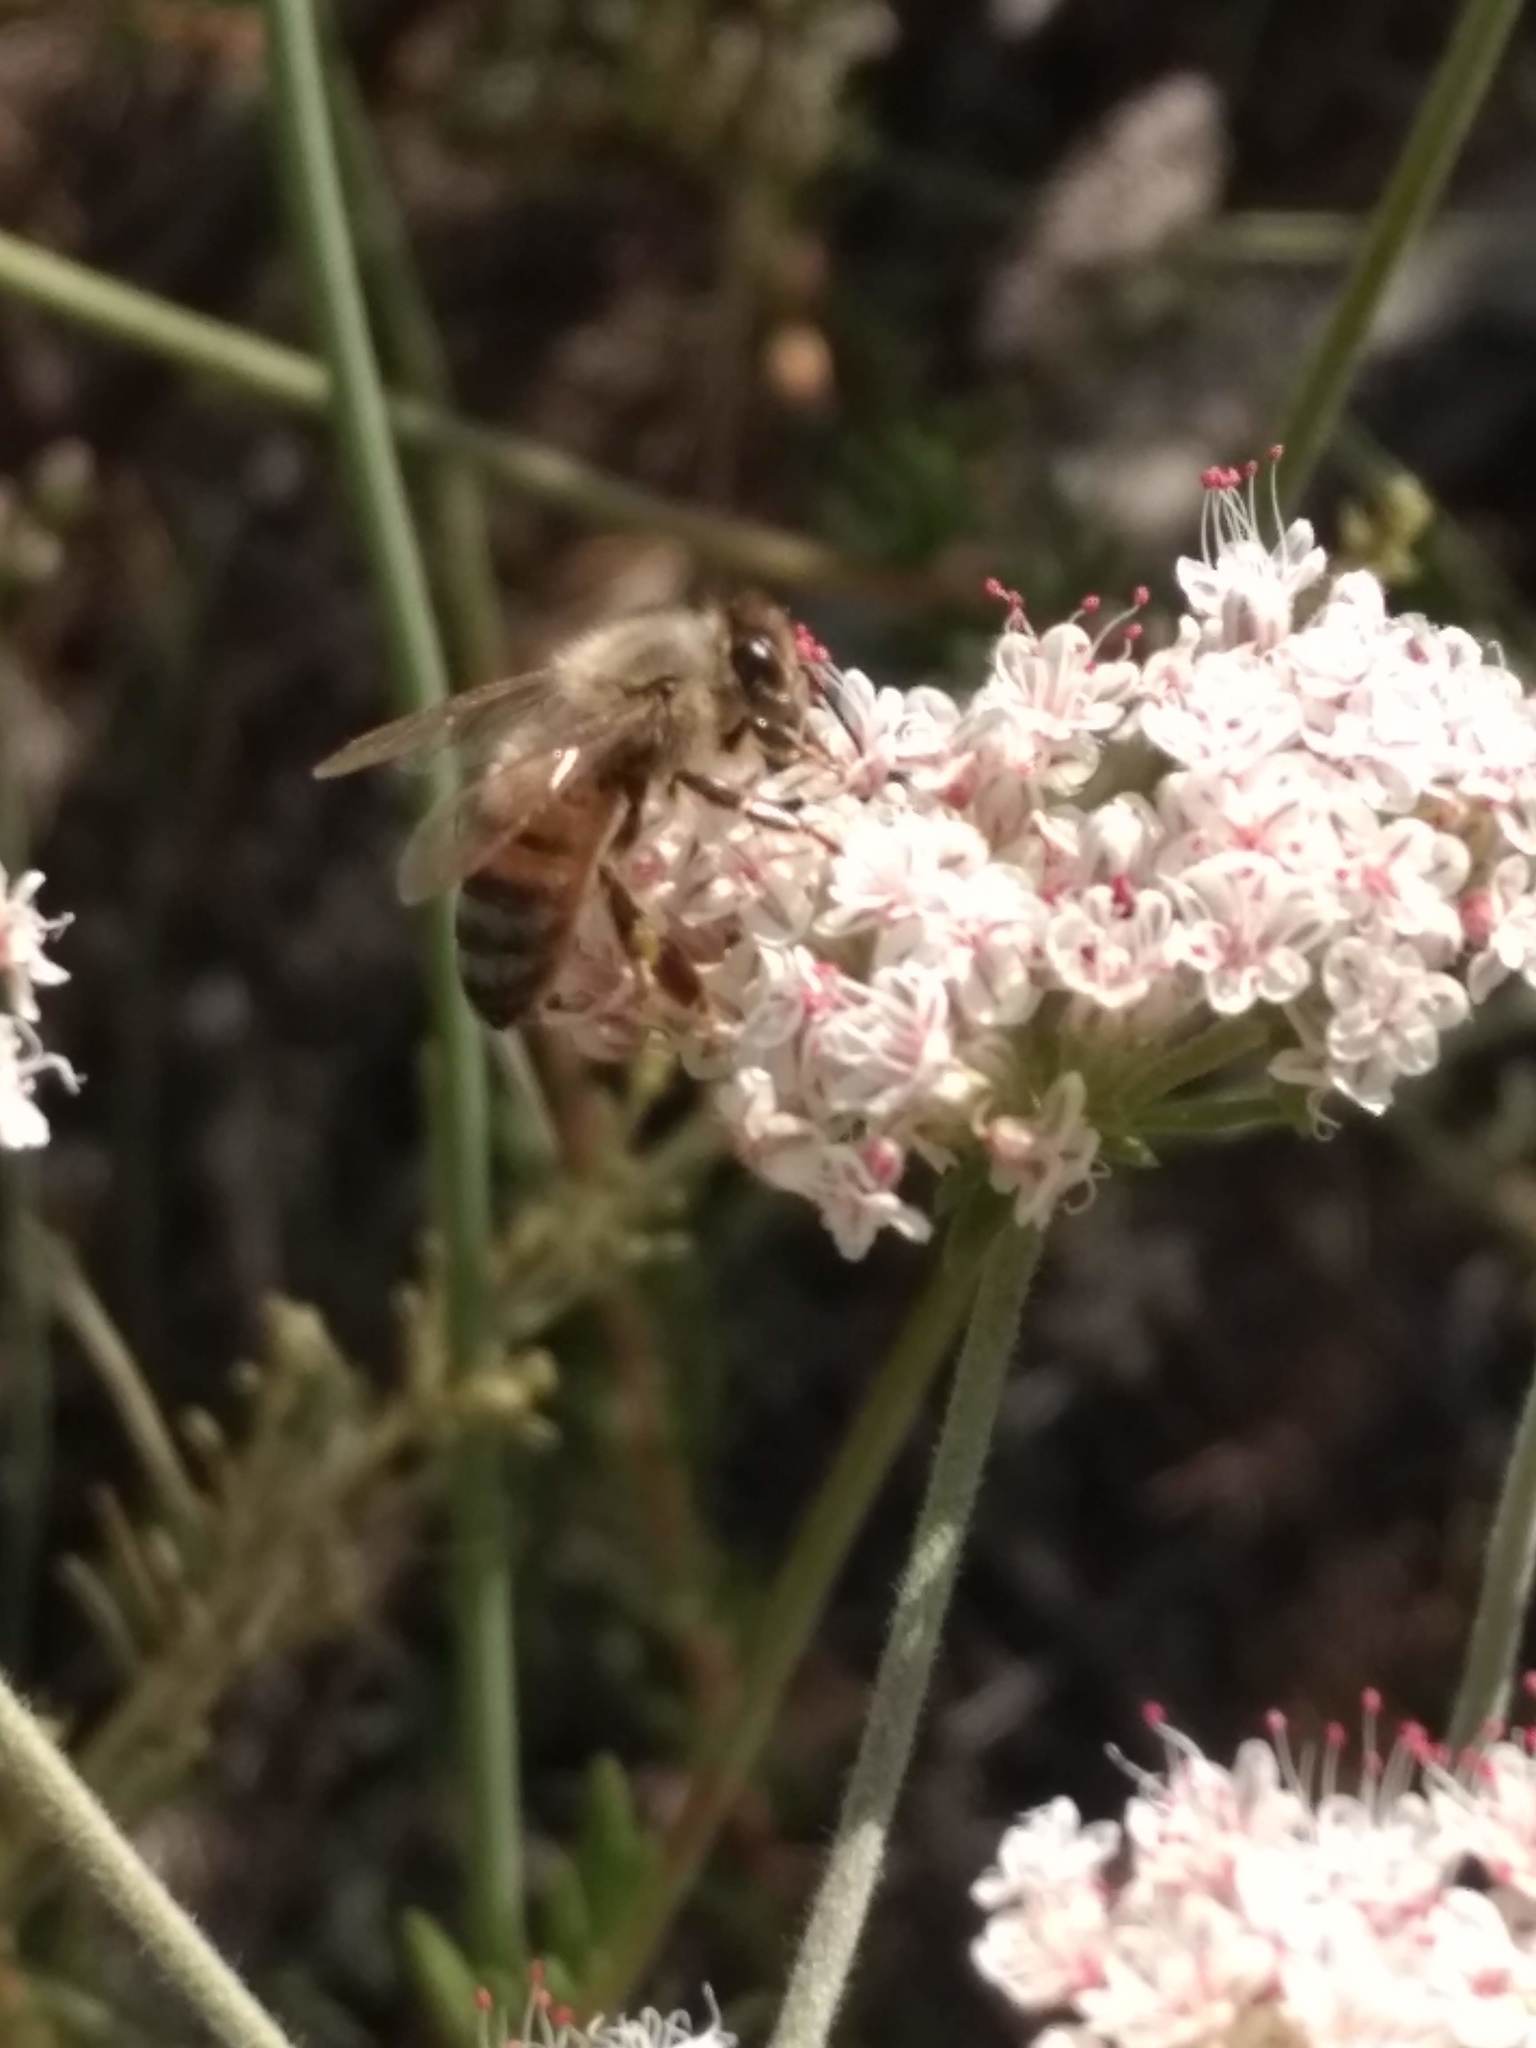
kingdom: Animalia
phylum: Arthropoda
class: Insecta
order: Hymenoptera
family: Apidae
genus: Apis
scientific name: Apis mellifera
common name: Honey bee
